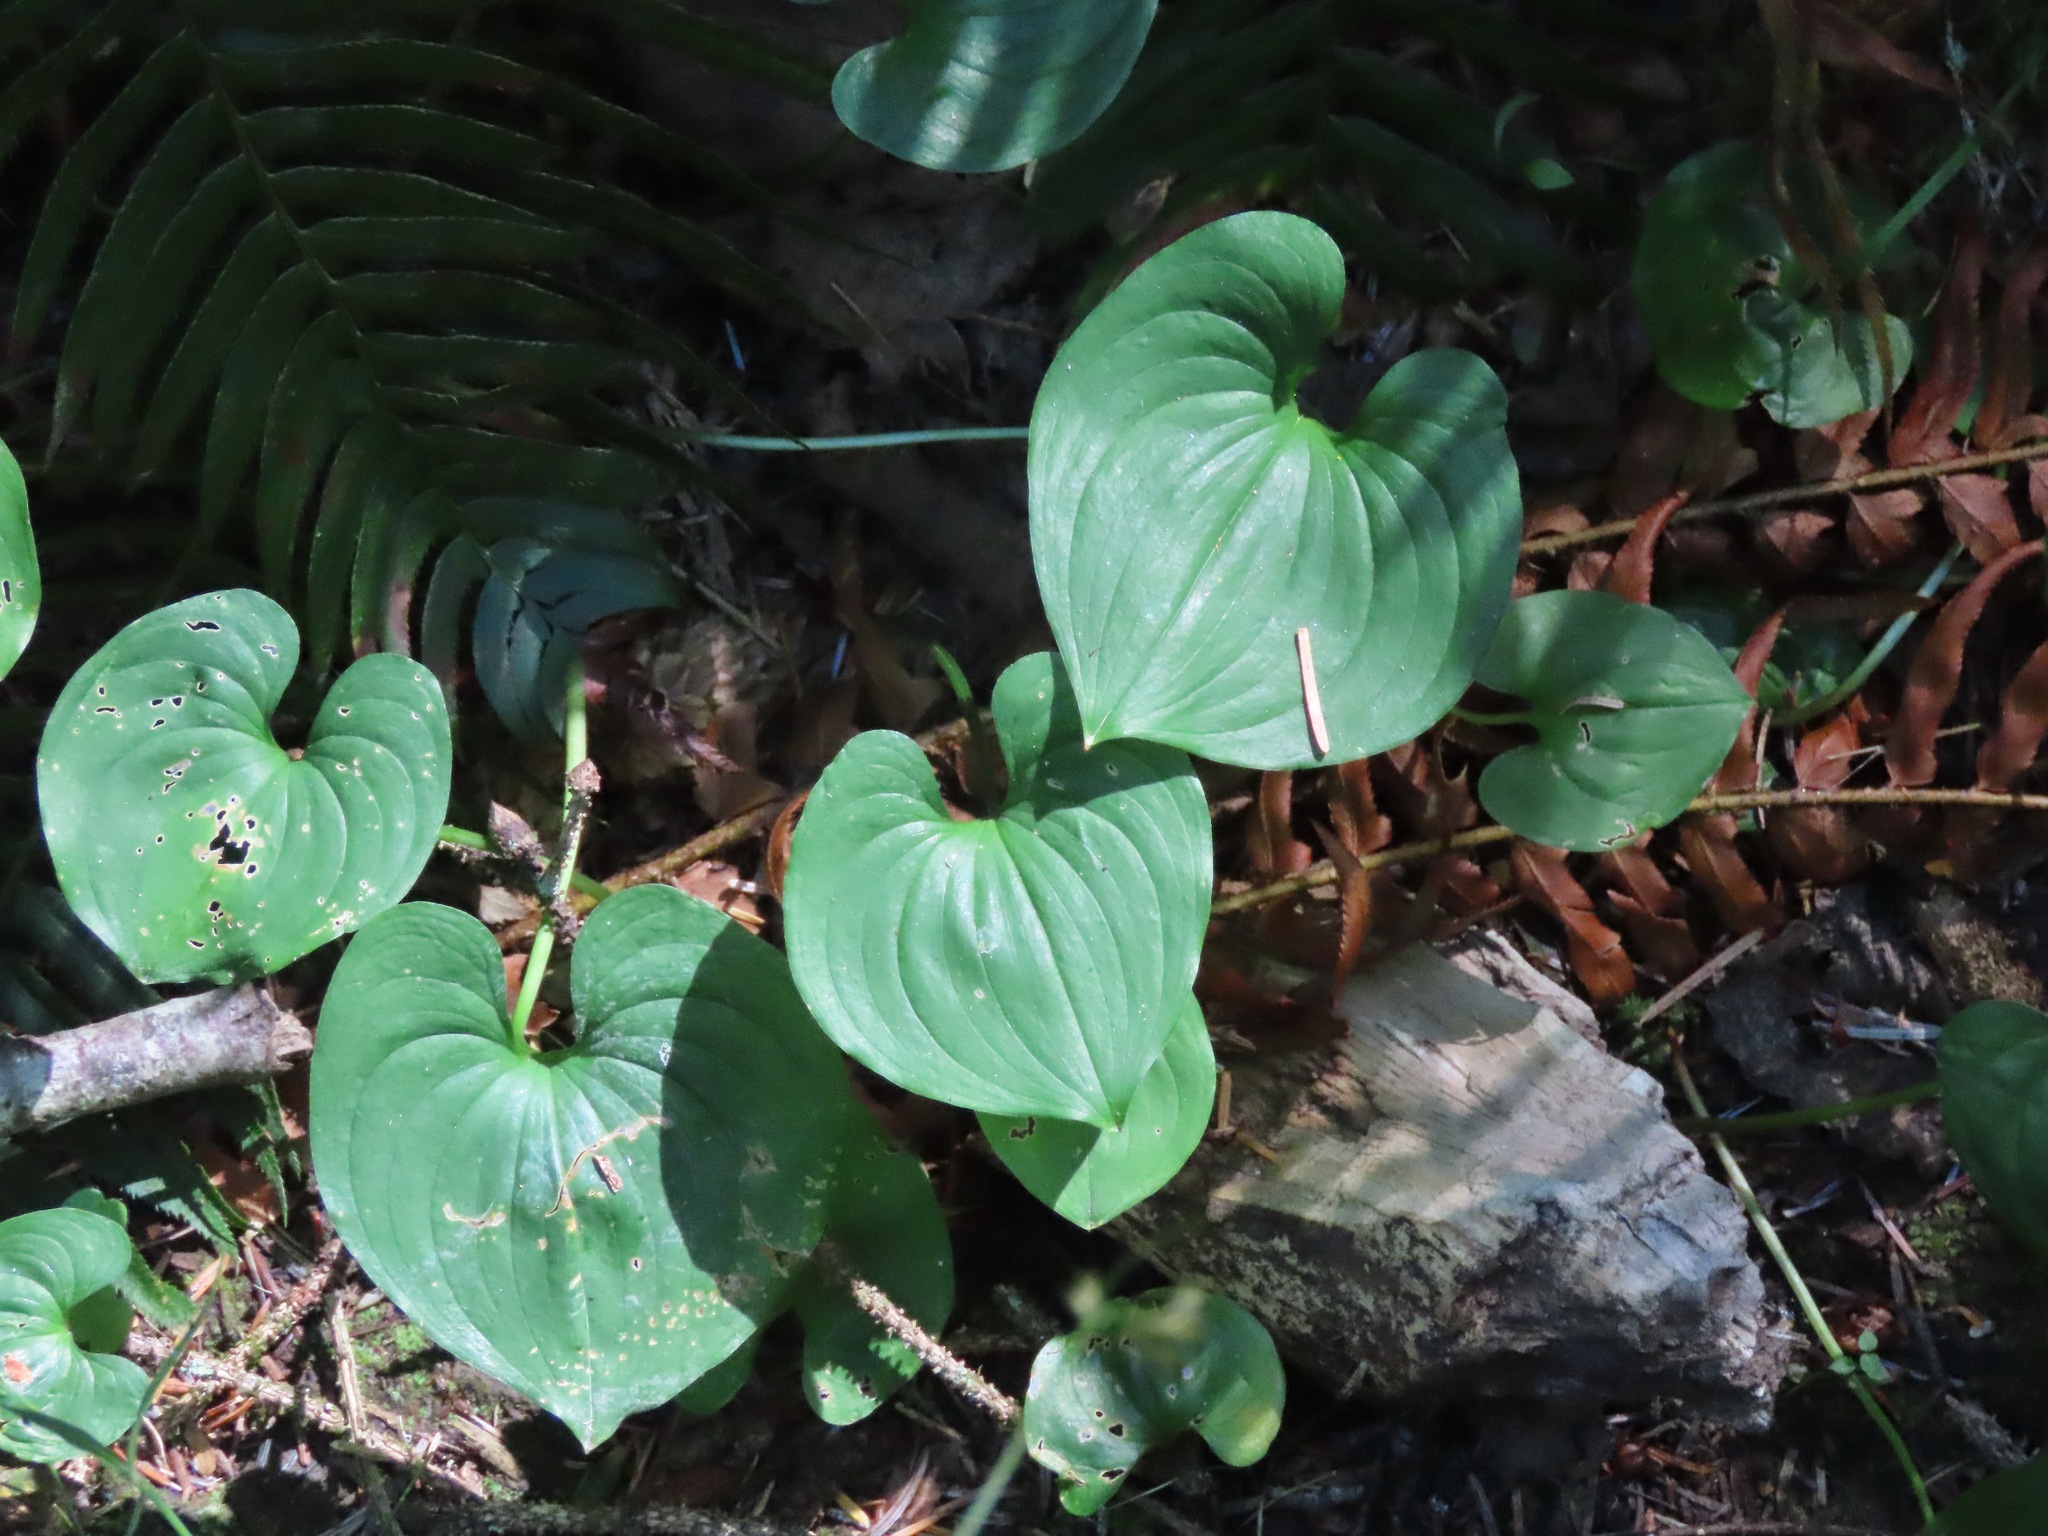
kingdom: Plantae
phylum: Tracheophyta
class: Liliopsida
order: Asparagales
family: Asparagaceae
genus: Maianthemum
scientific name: Maianthemum dilatatum
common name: False lily-of-the-valley
